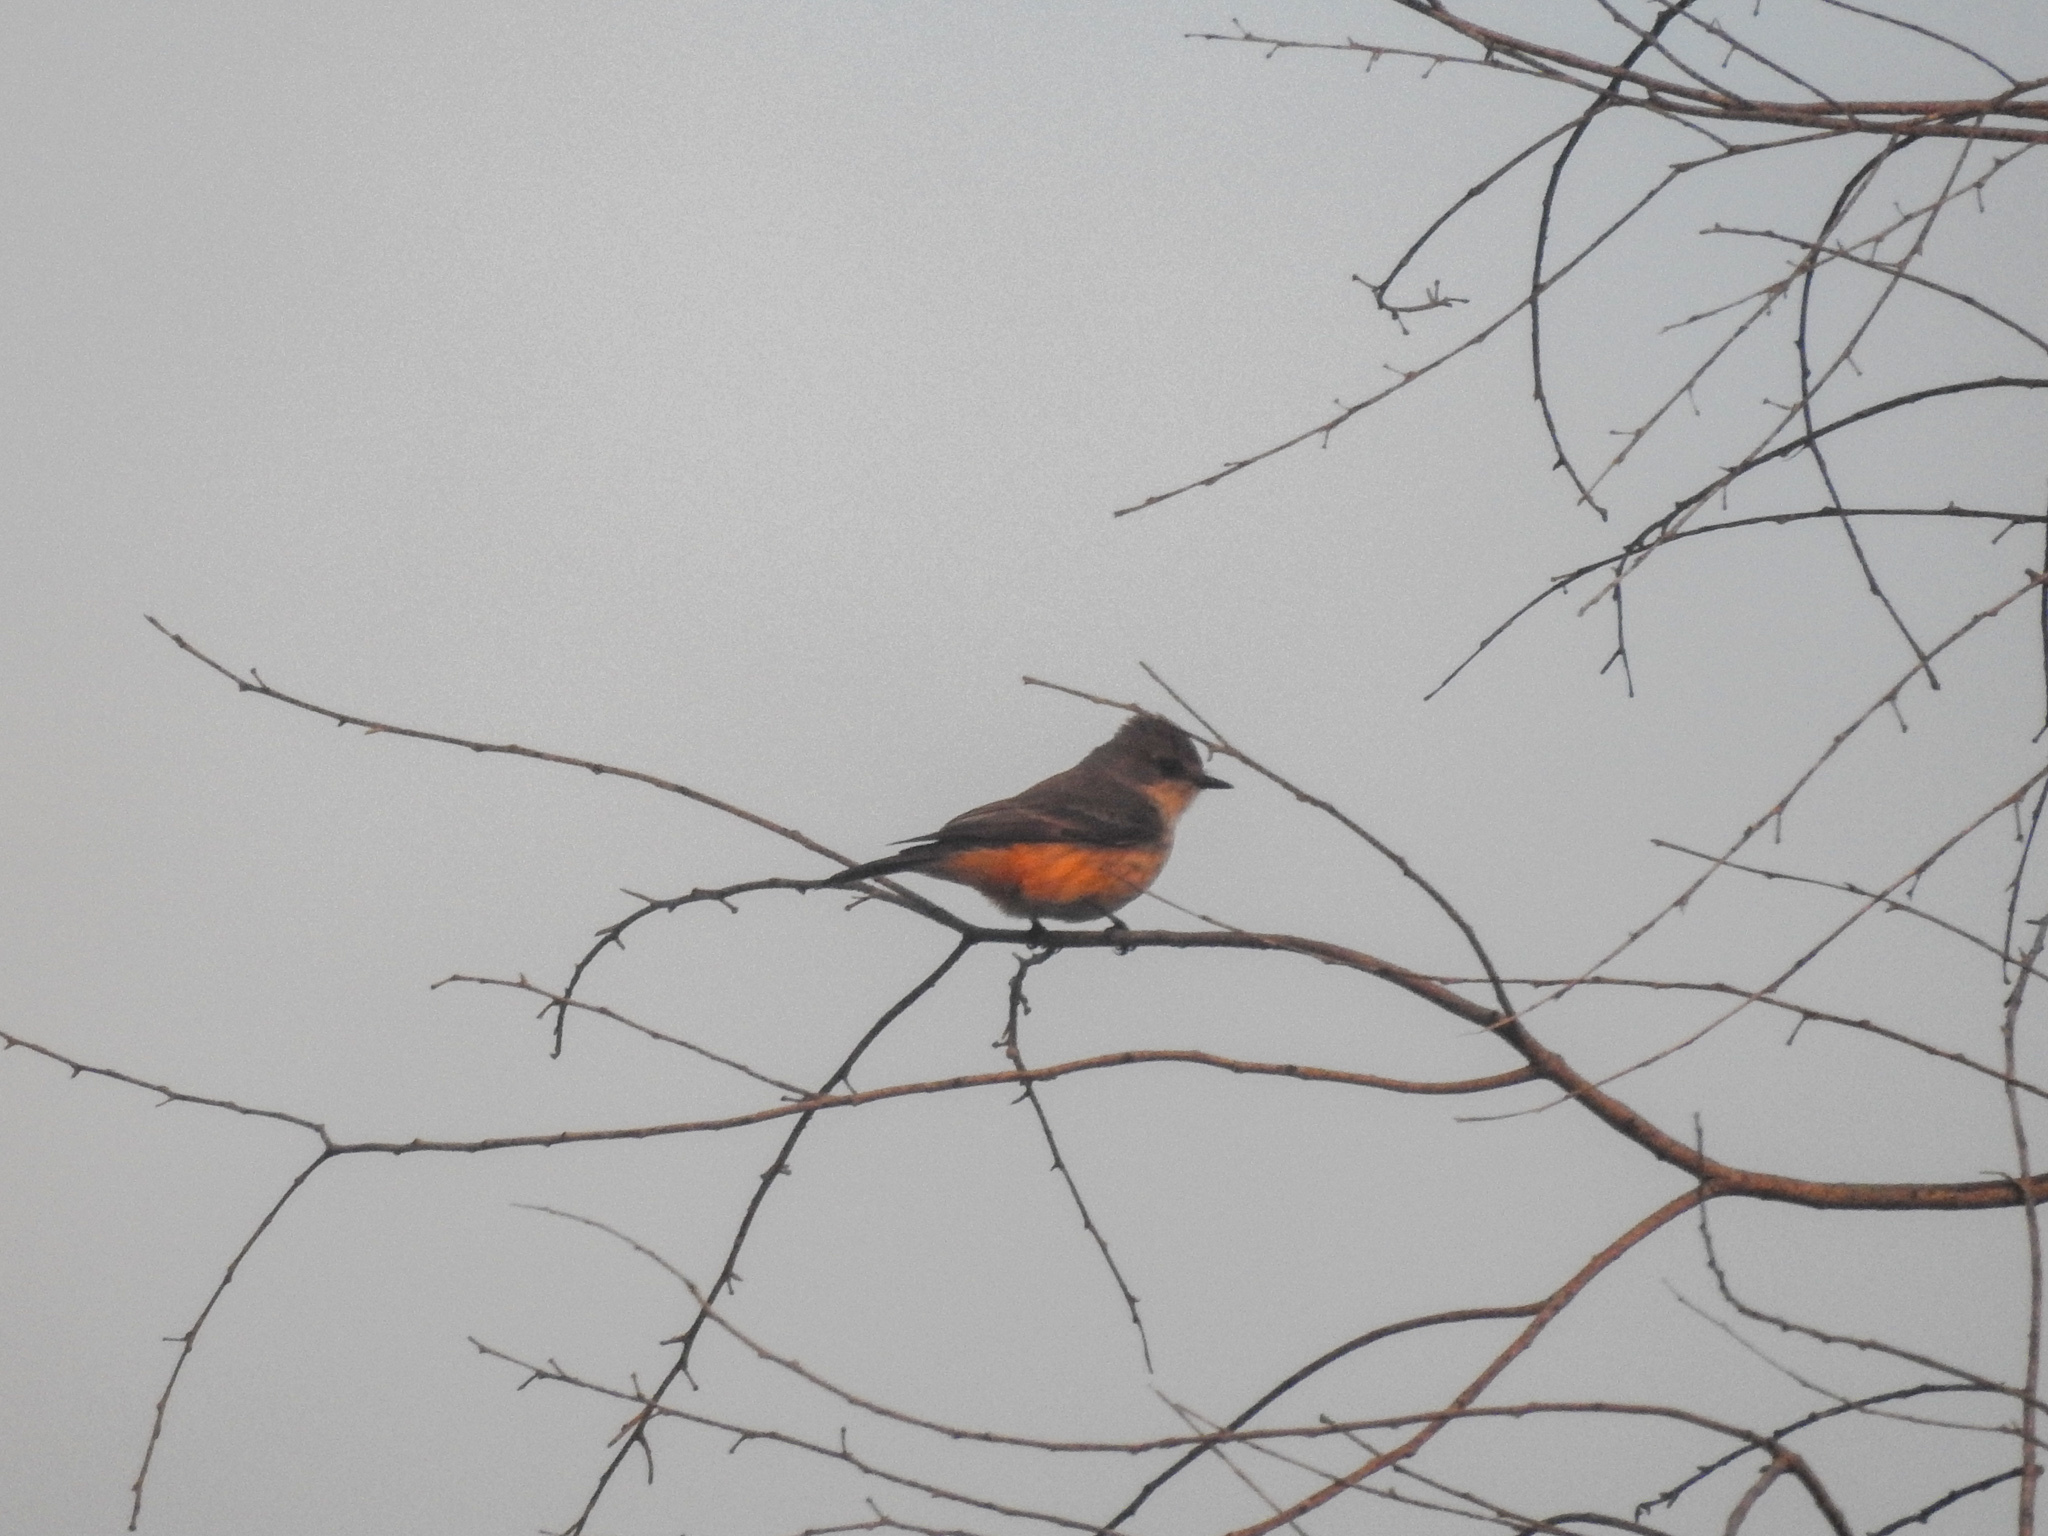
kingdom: Animalia
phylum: Chordata
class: Aves
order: Passeriformes
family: Tyrannidae
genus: Pyrocephalus
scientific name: Pyrocephalus rubinus
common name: Vermilion flycatcher
